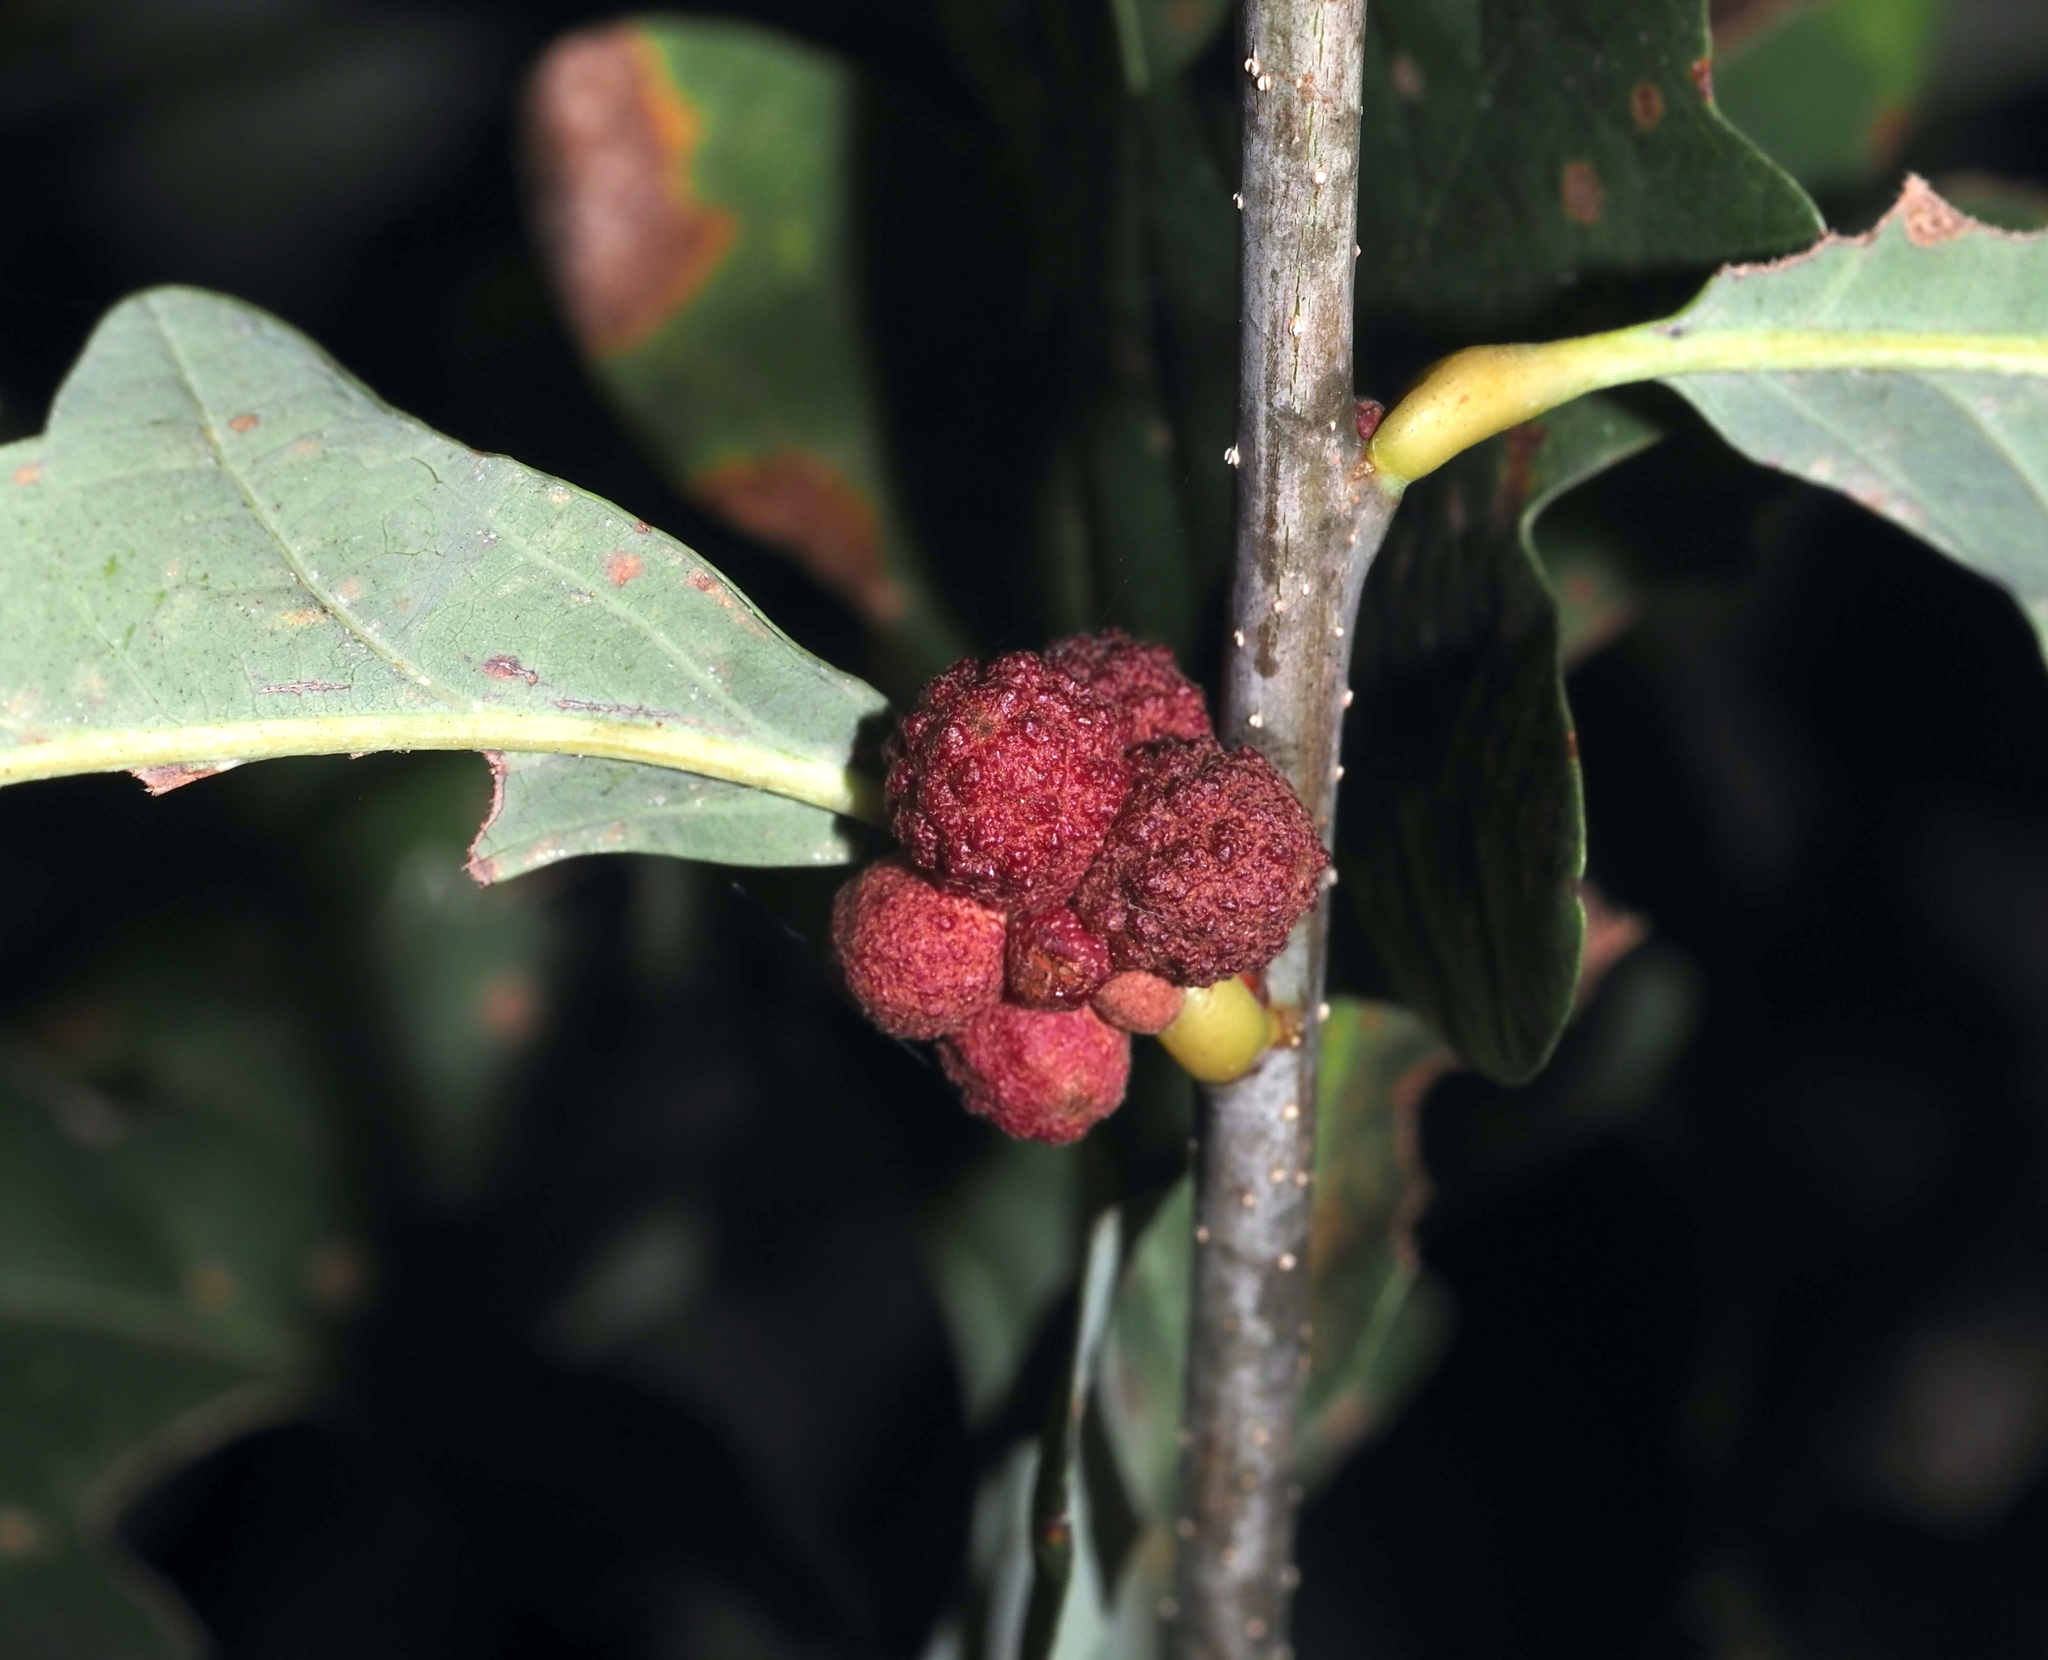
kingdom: Animalia
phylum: Arthropoda
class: Insecta
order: Hymenoptera
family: Cynipidae
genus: Andricus
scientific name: Andricus
